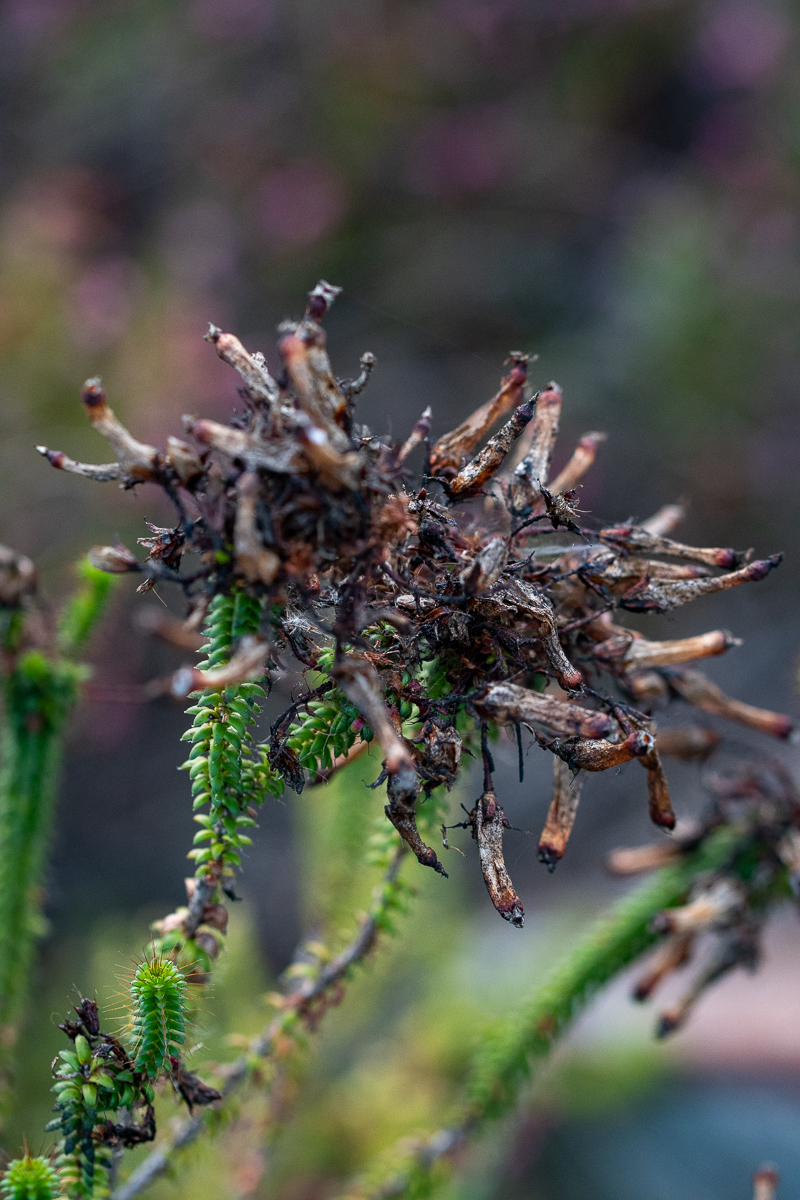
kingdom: Plantae
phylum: Tracheophyta
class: Magnoliopsida
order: Ericales
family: Ericaceae
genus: Erica
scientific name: Erica retorta
